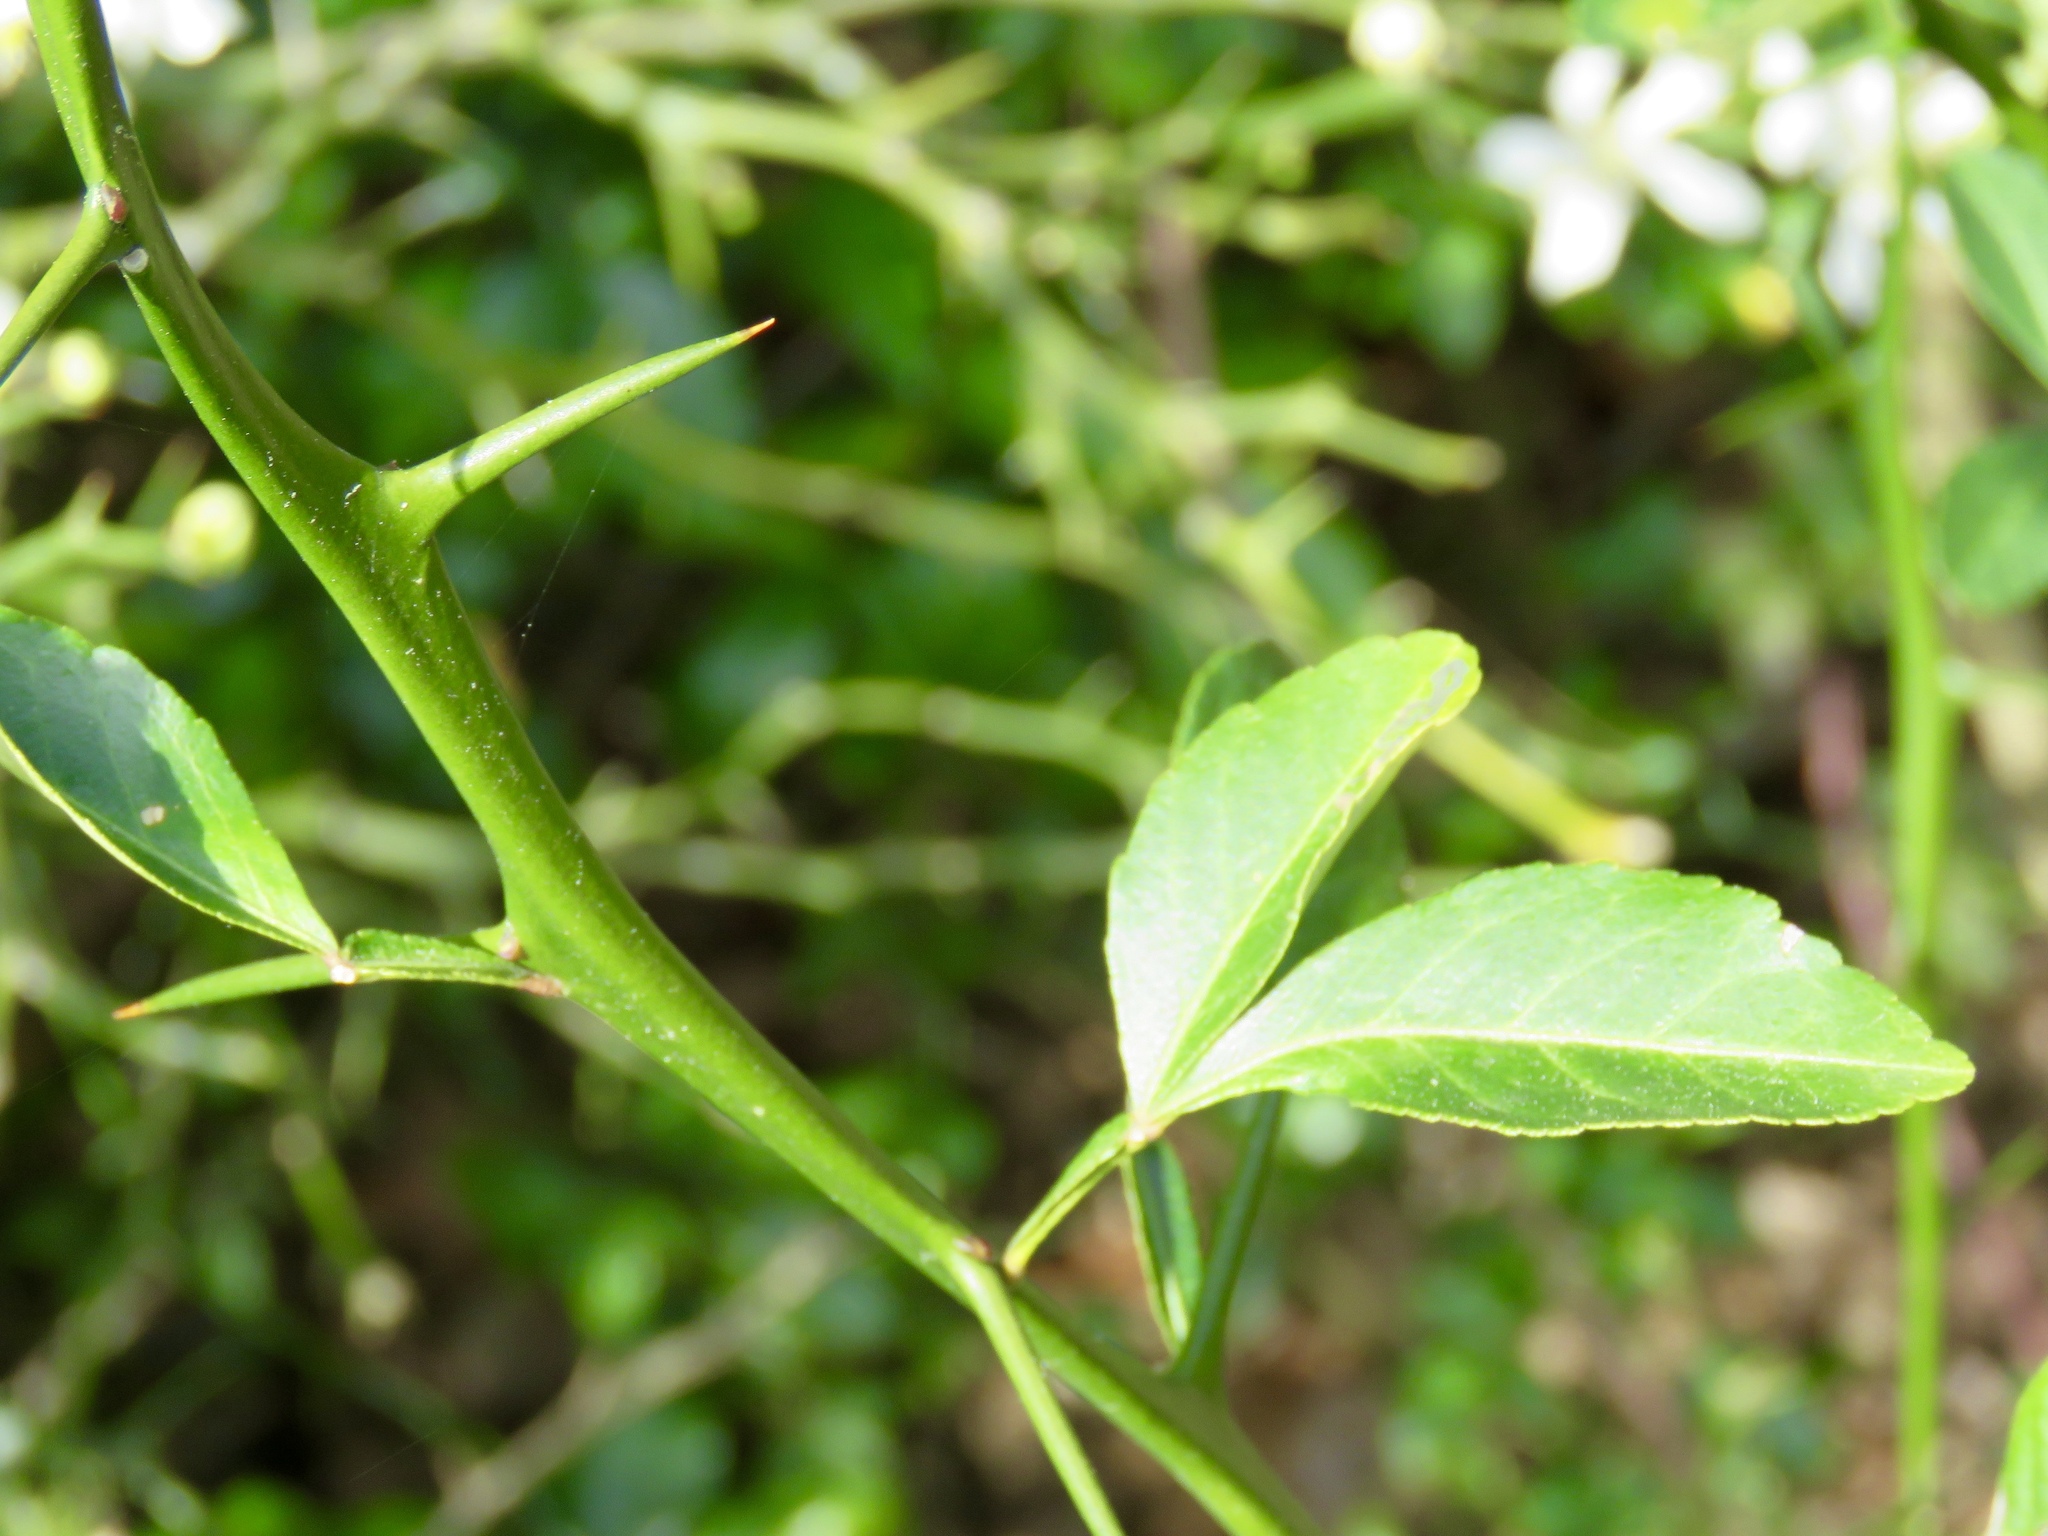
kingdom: Plantae
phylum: Tracheophyta
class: Magnoliopsida
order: Sapindales
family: Rutaceae
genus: Citrus
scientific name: Citrus trifoliata
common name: Japanese bitter-orange
